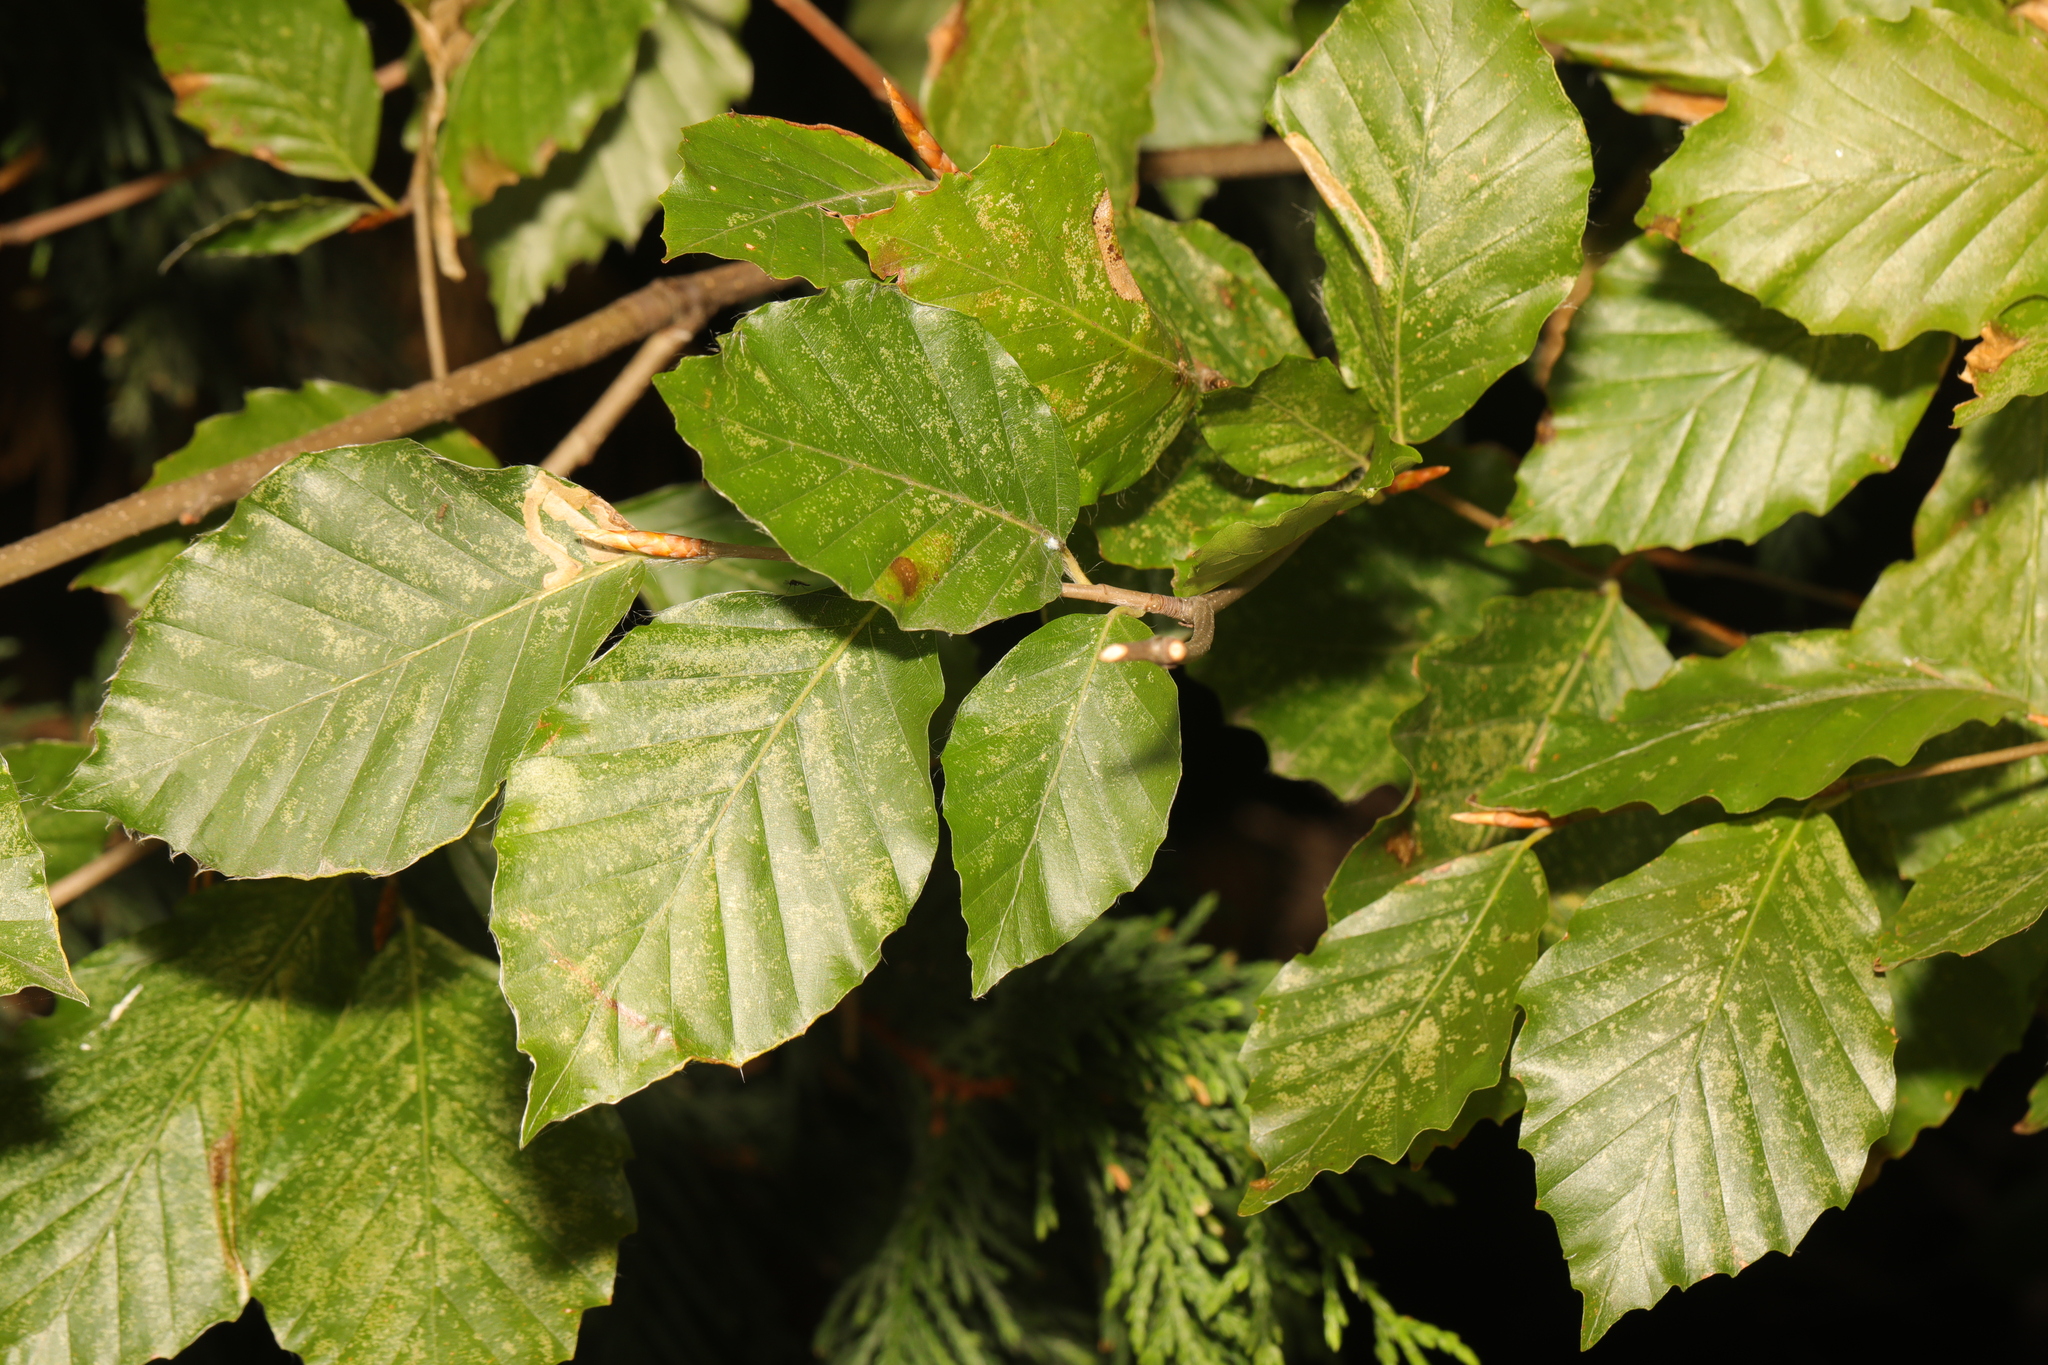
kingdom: Plantae
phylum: Tracheophyta
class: Magnoliopsida
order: Fagales
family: Fagaceae
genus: Fagus
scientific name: Fagus sylvatica
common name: Beech
